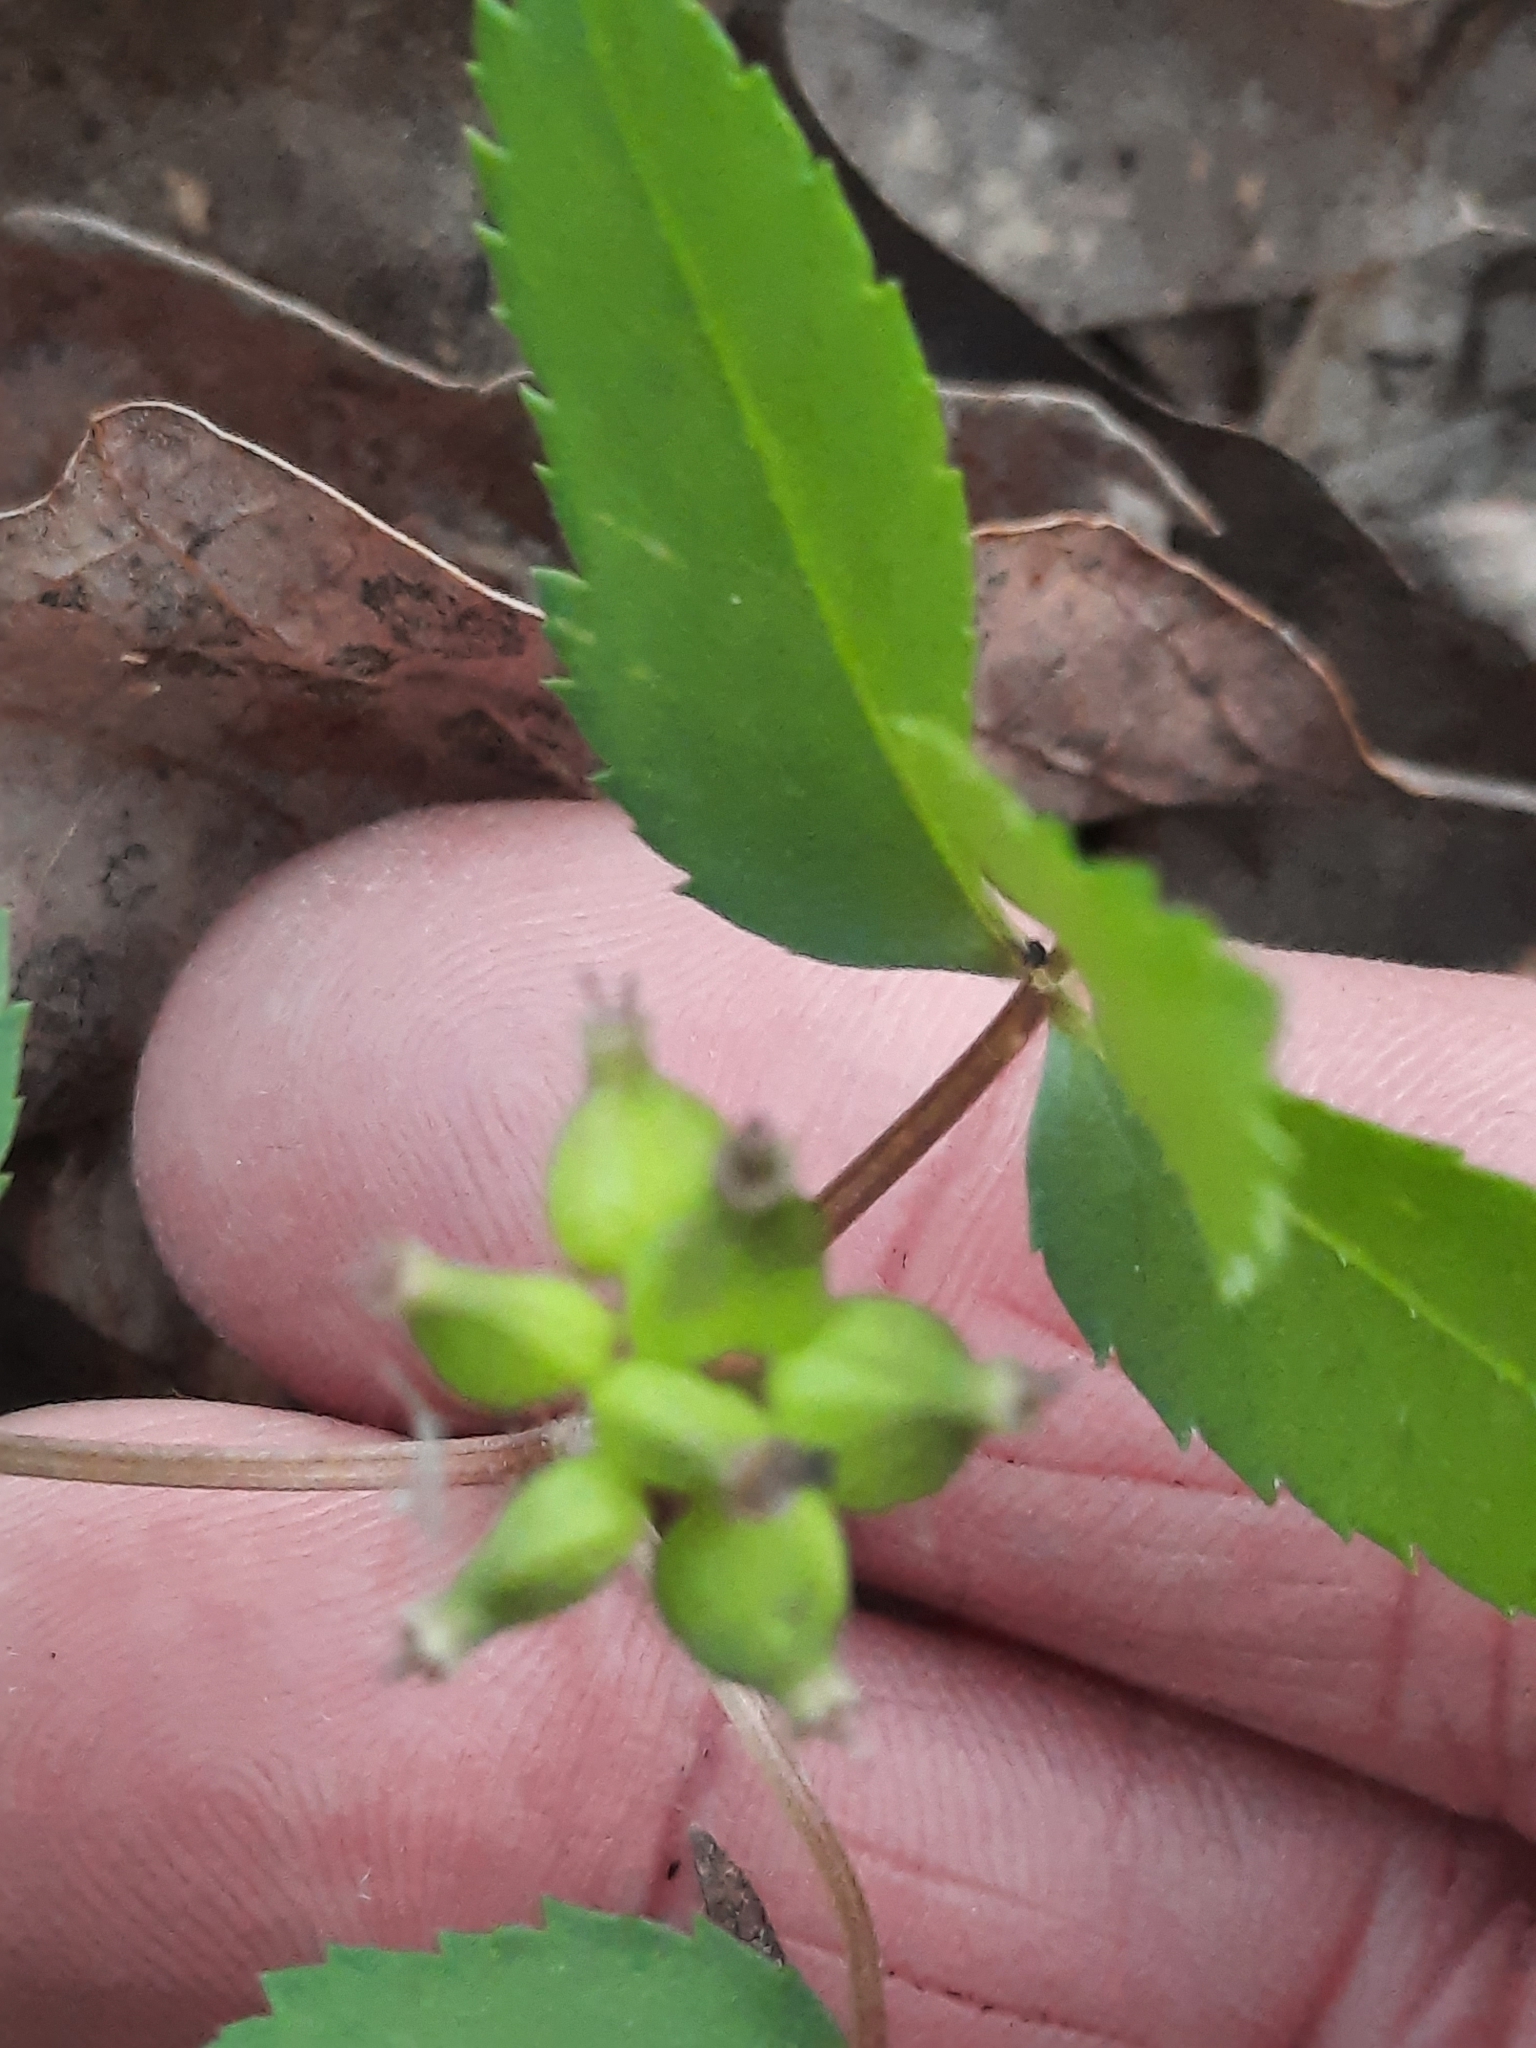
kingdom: Plantae
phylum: Tracheophyta
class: Magnoliopsida
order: Apiales
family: Araliaceae
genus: Panax
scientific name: Panax trifolius
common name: Dwarf ginseng
